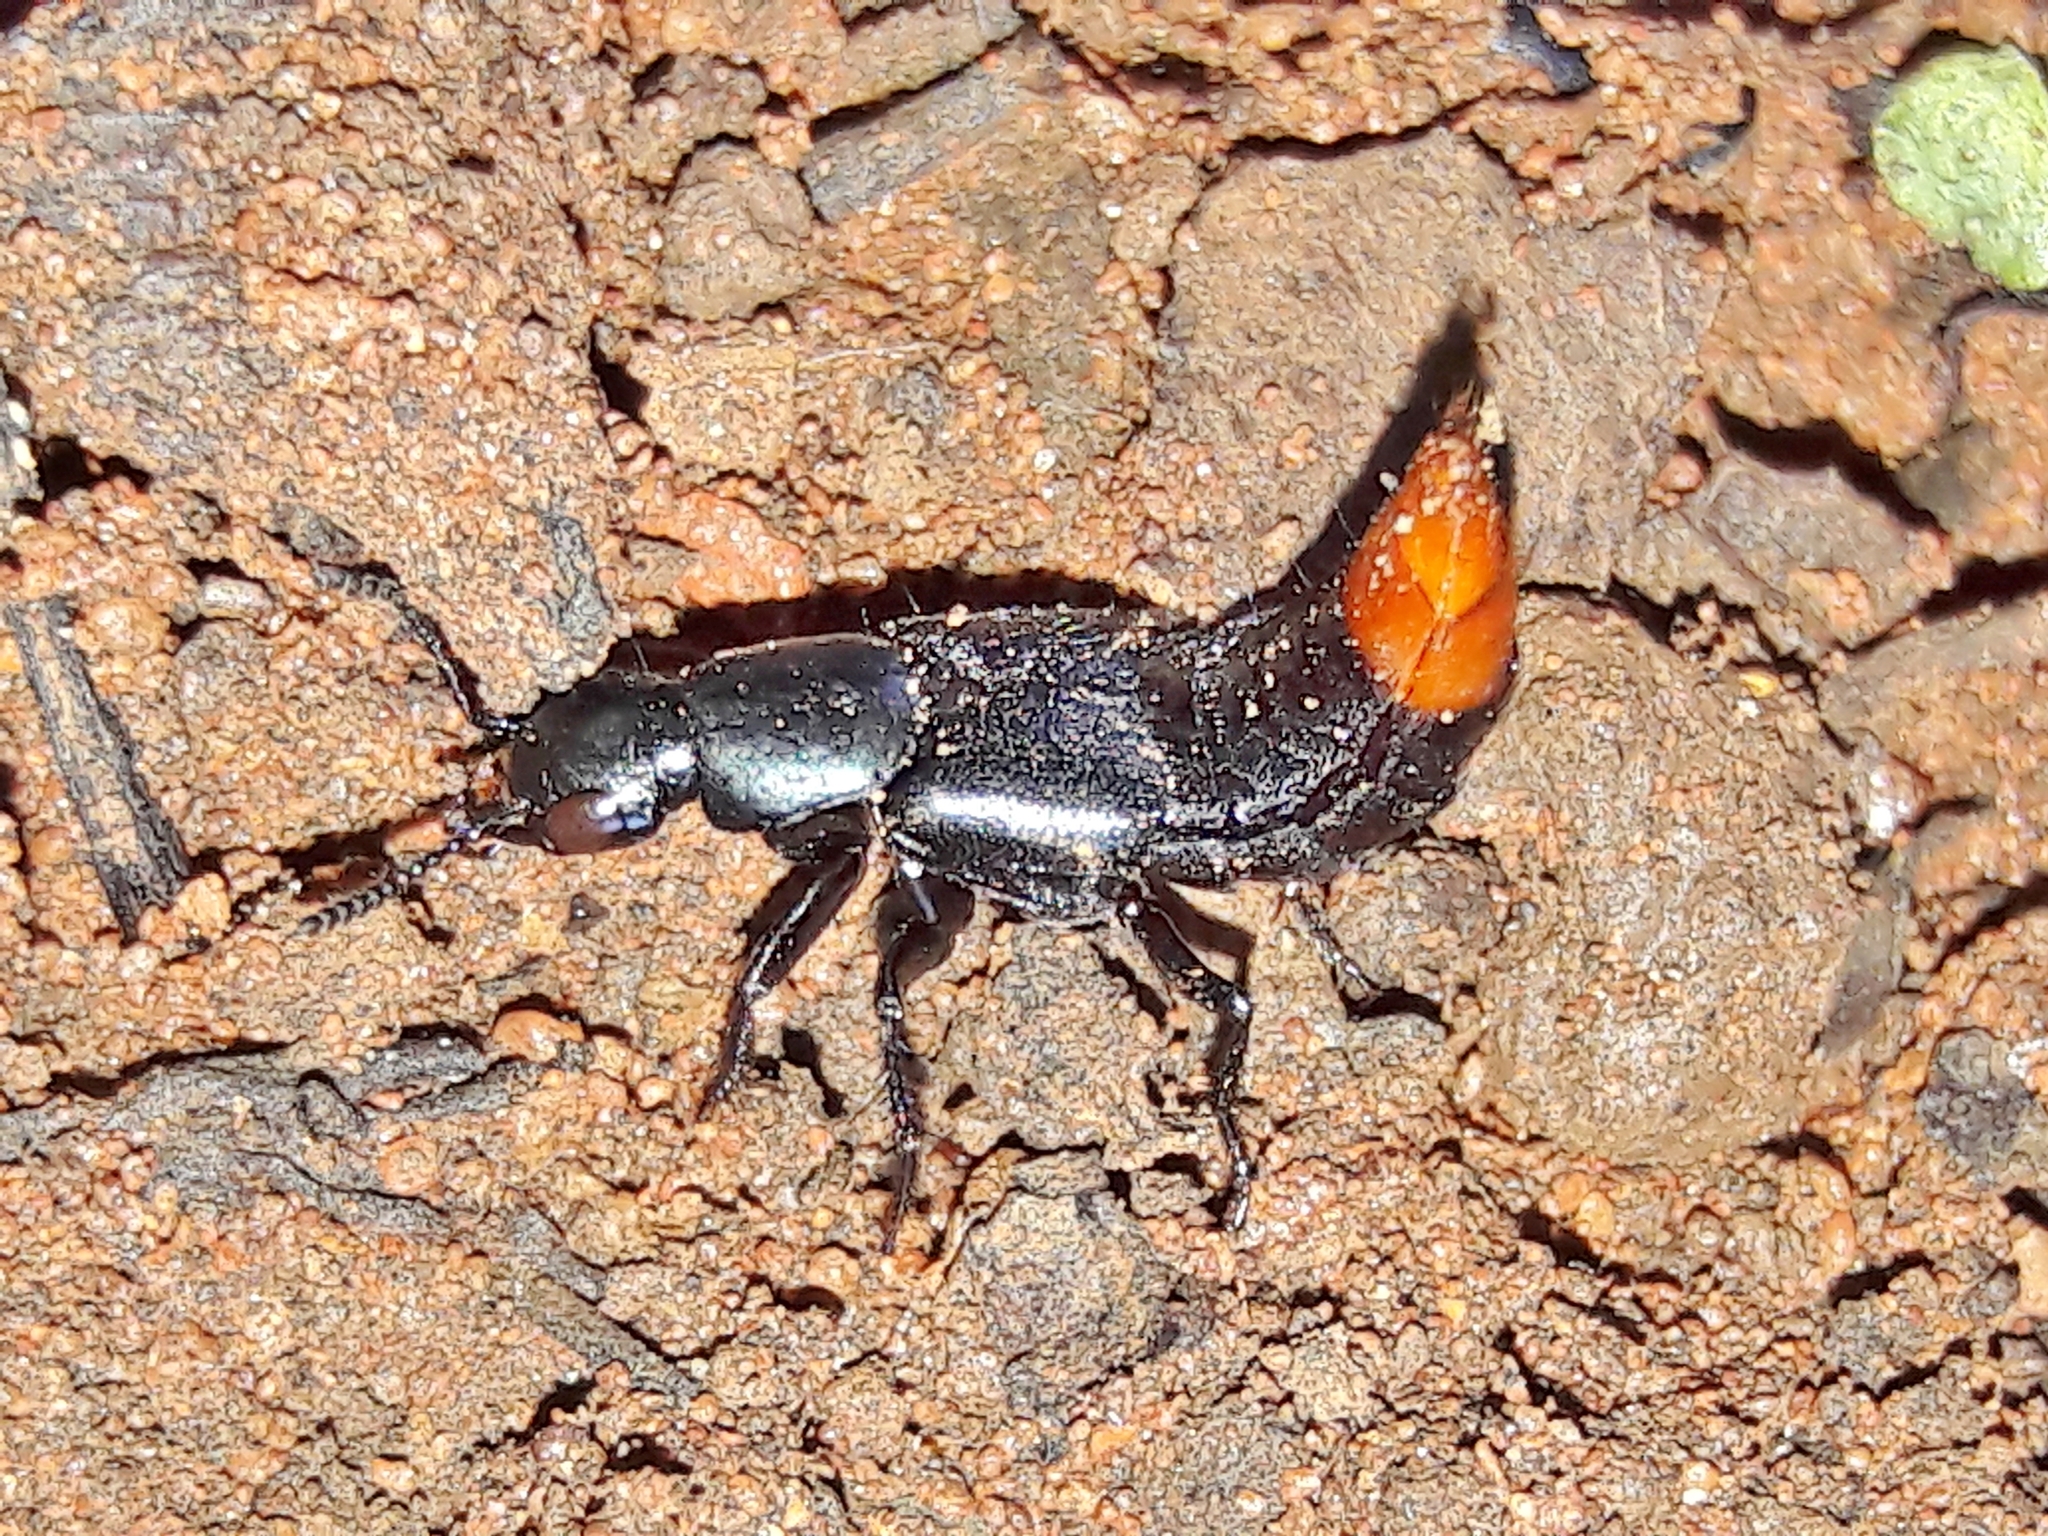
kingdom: Animalia
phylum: Arthropoda
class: Insecta
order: Coleoptera
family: Staphylinidae
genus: Xenopygus
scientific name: Xenopygus analis
